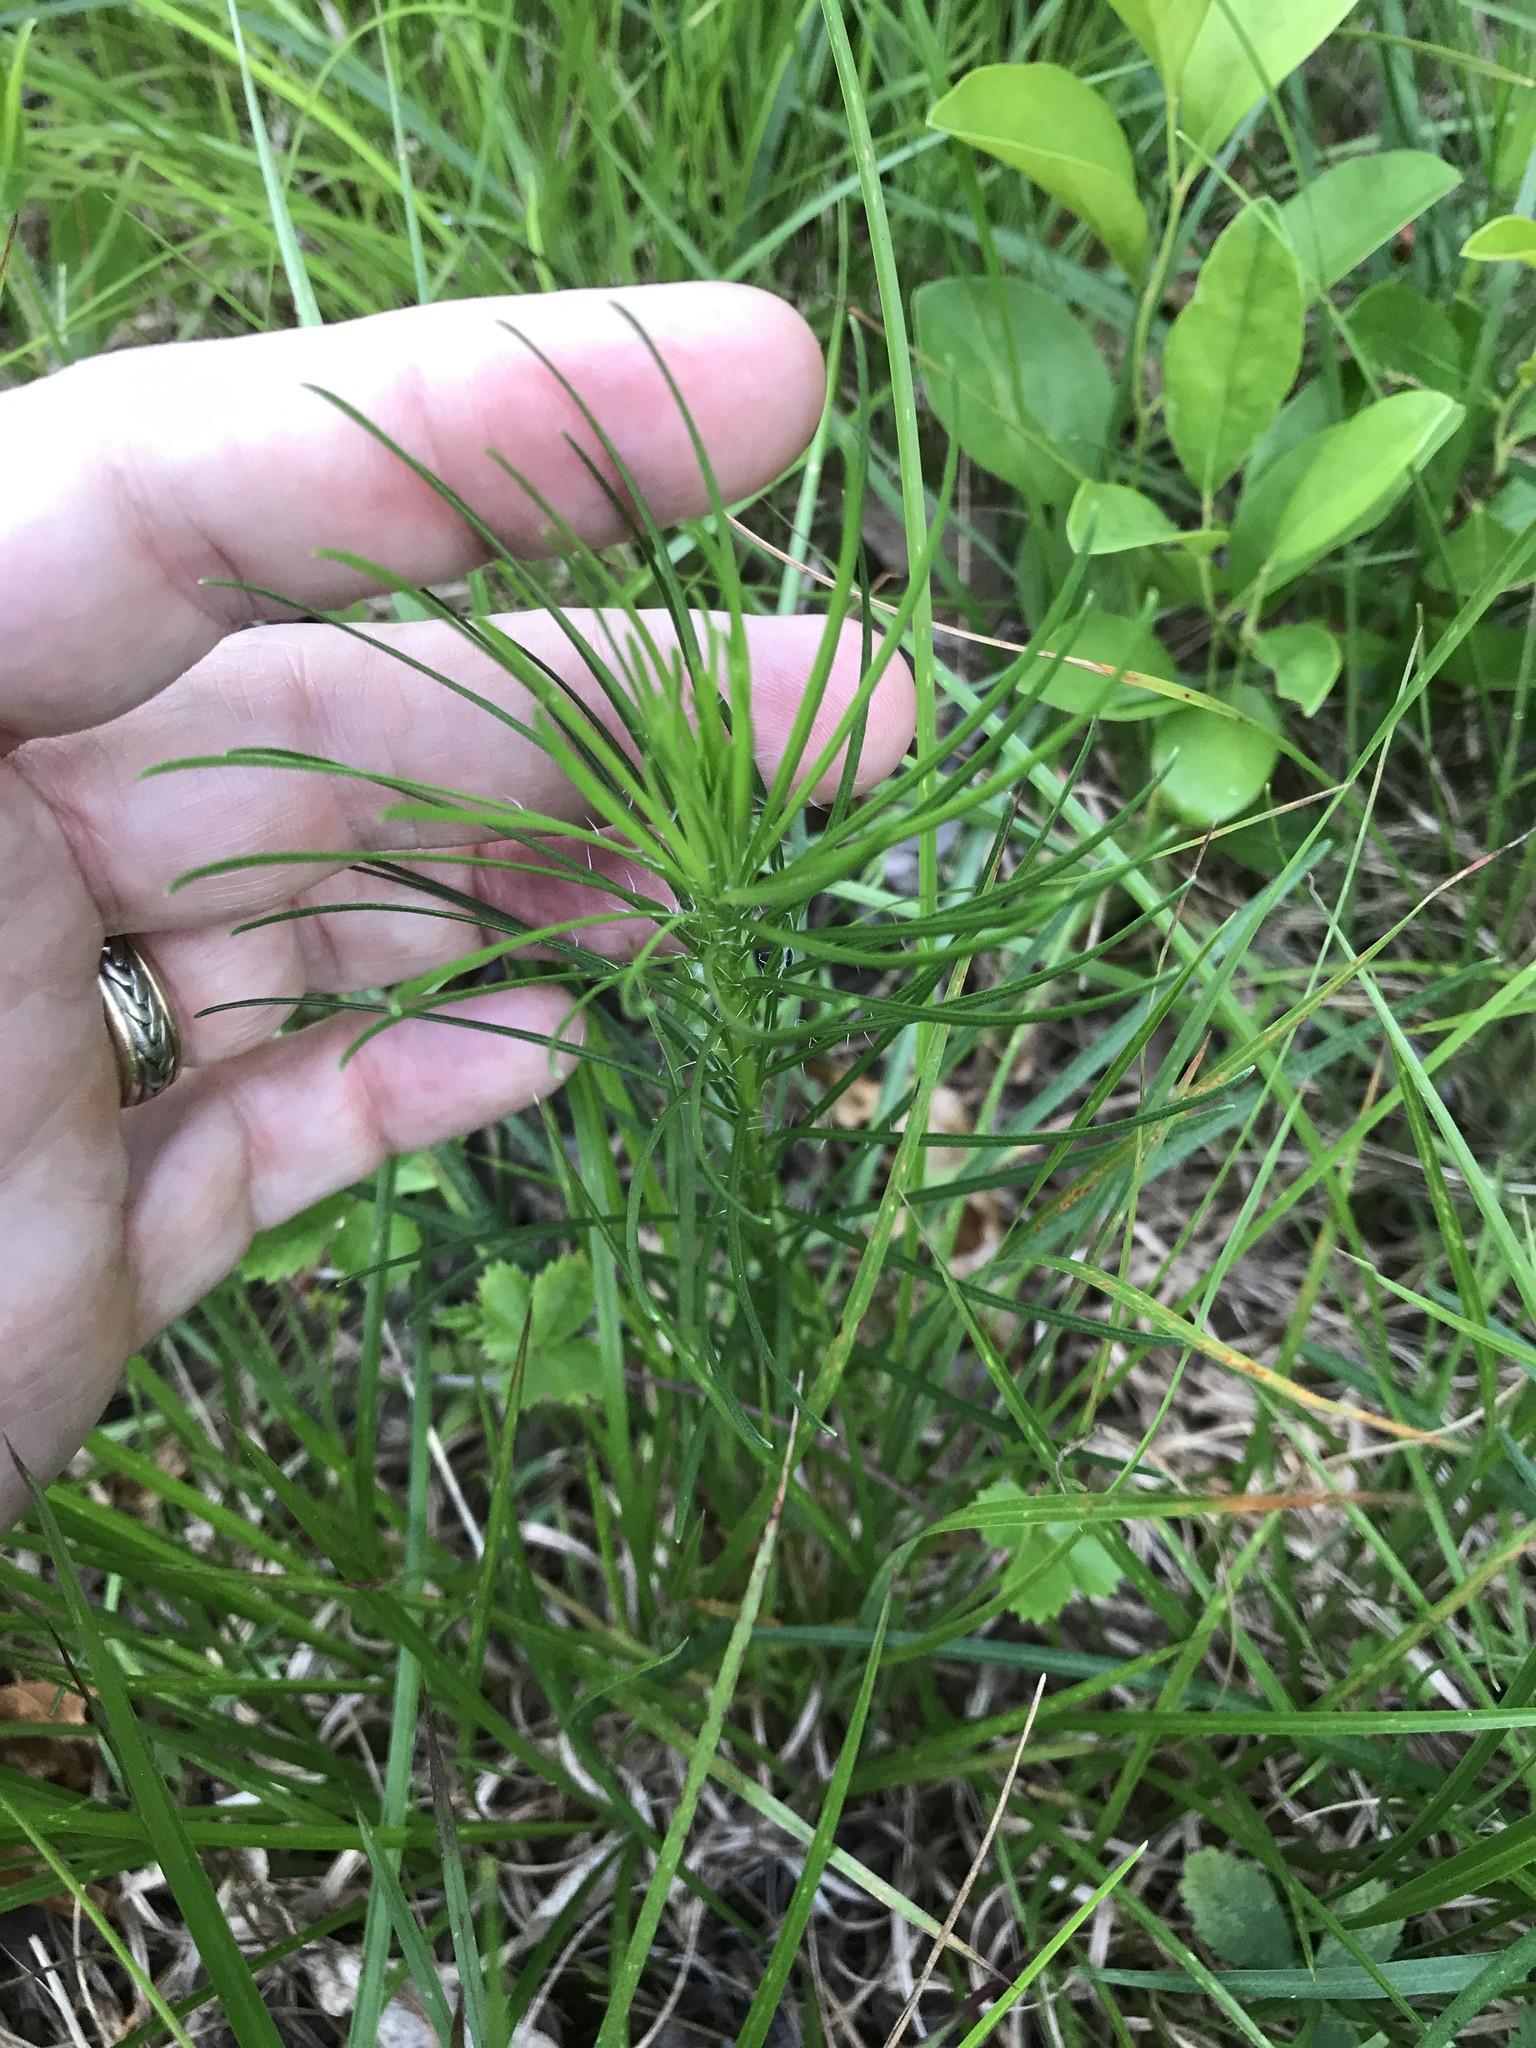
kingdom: Plantae
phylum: Tracheophyta
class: Magnoliopsida
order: Asterales
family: Asteraceae
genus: Liatris
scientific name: Liatris pilosa
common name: Grass-leaf gayfeather
